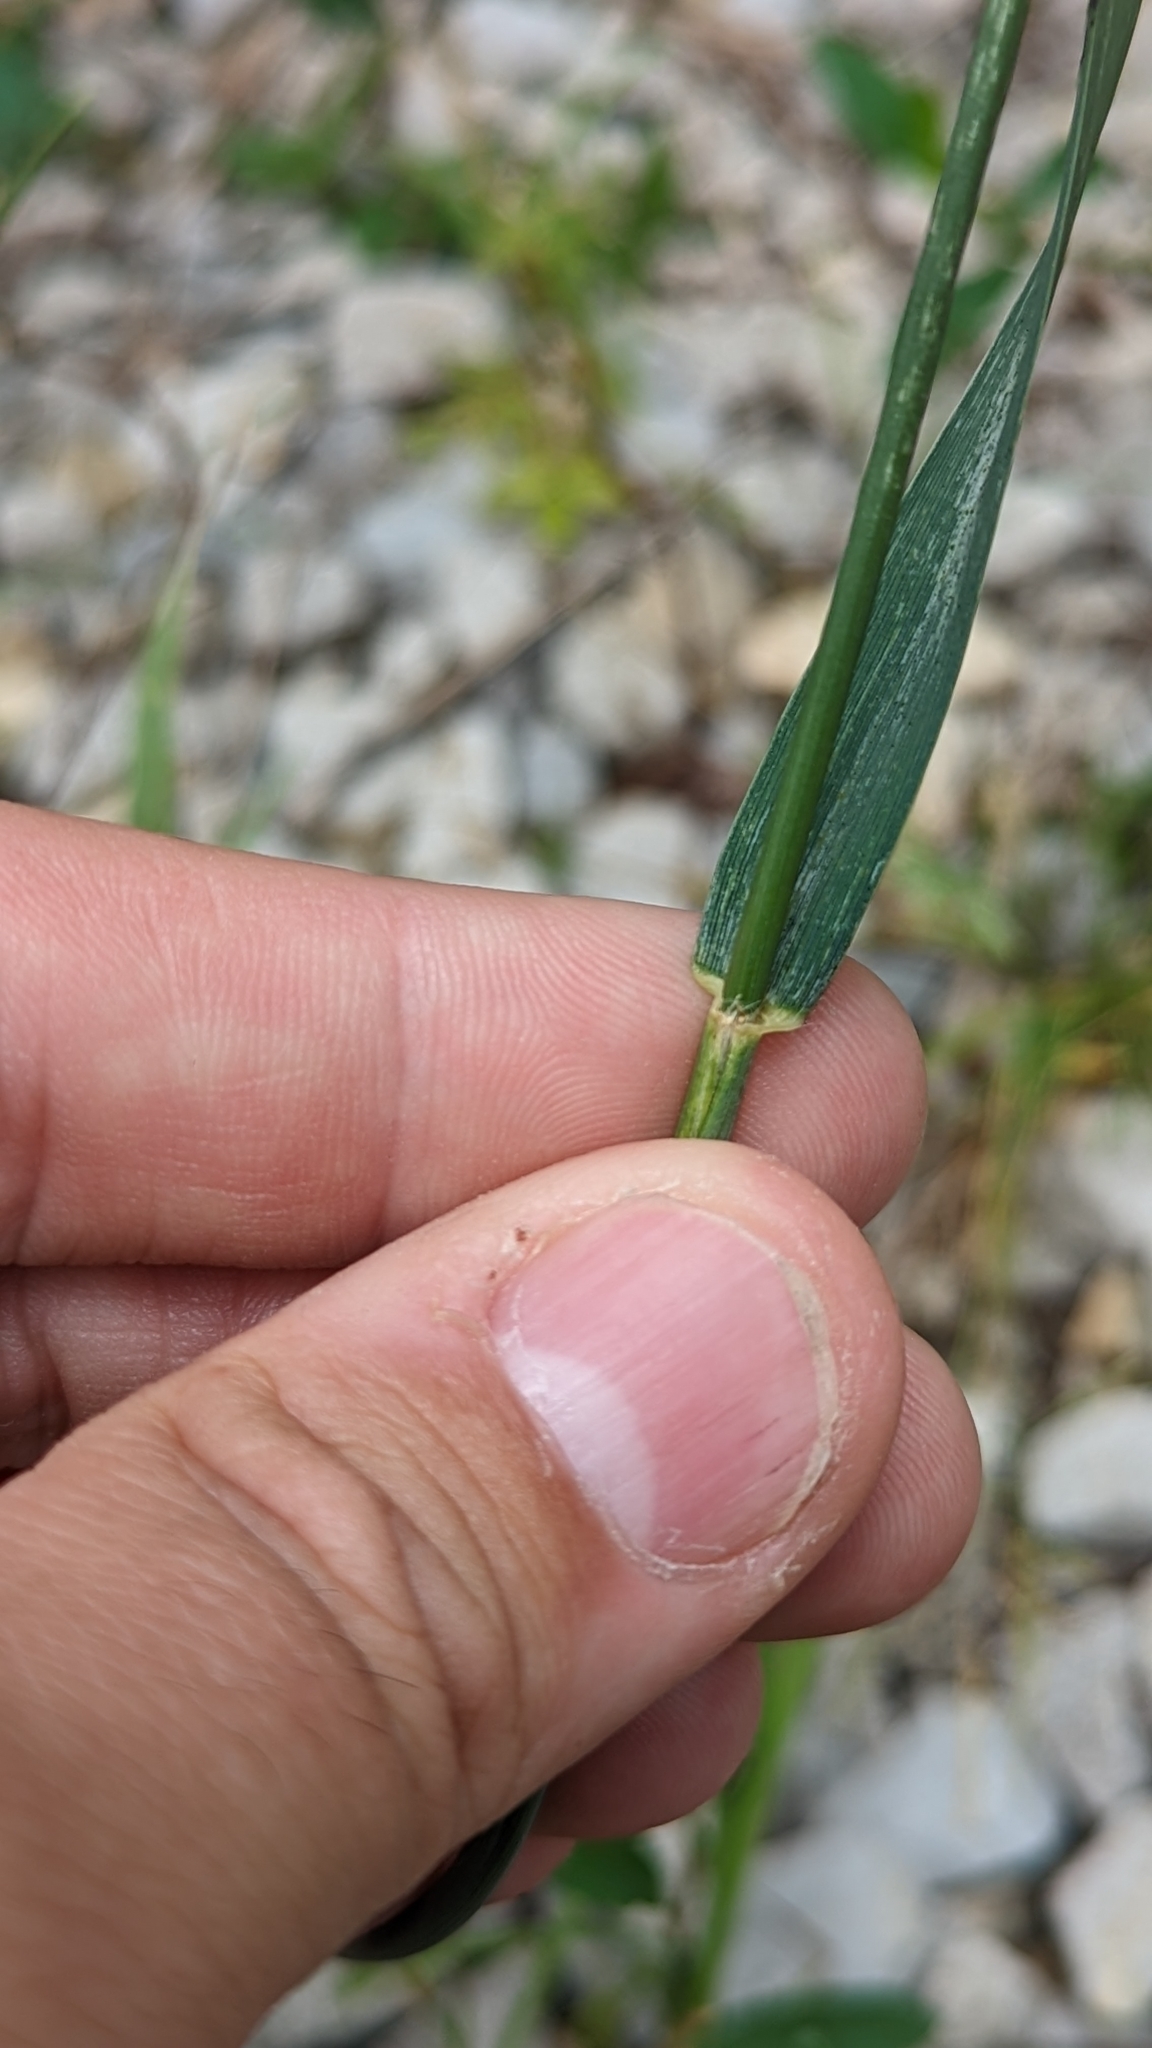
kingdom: Plantae
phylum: Tracheophyta
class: Liliopsida
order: Poales
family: Poaceae
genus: Triticum
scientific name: Triticum aestivum
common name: Common wheat
